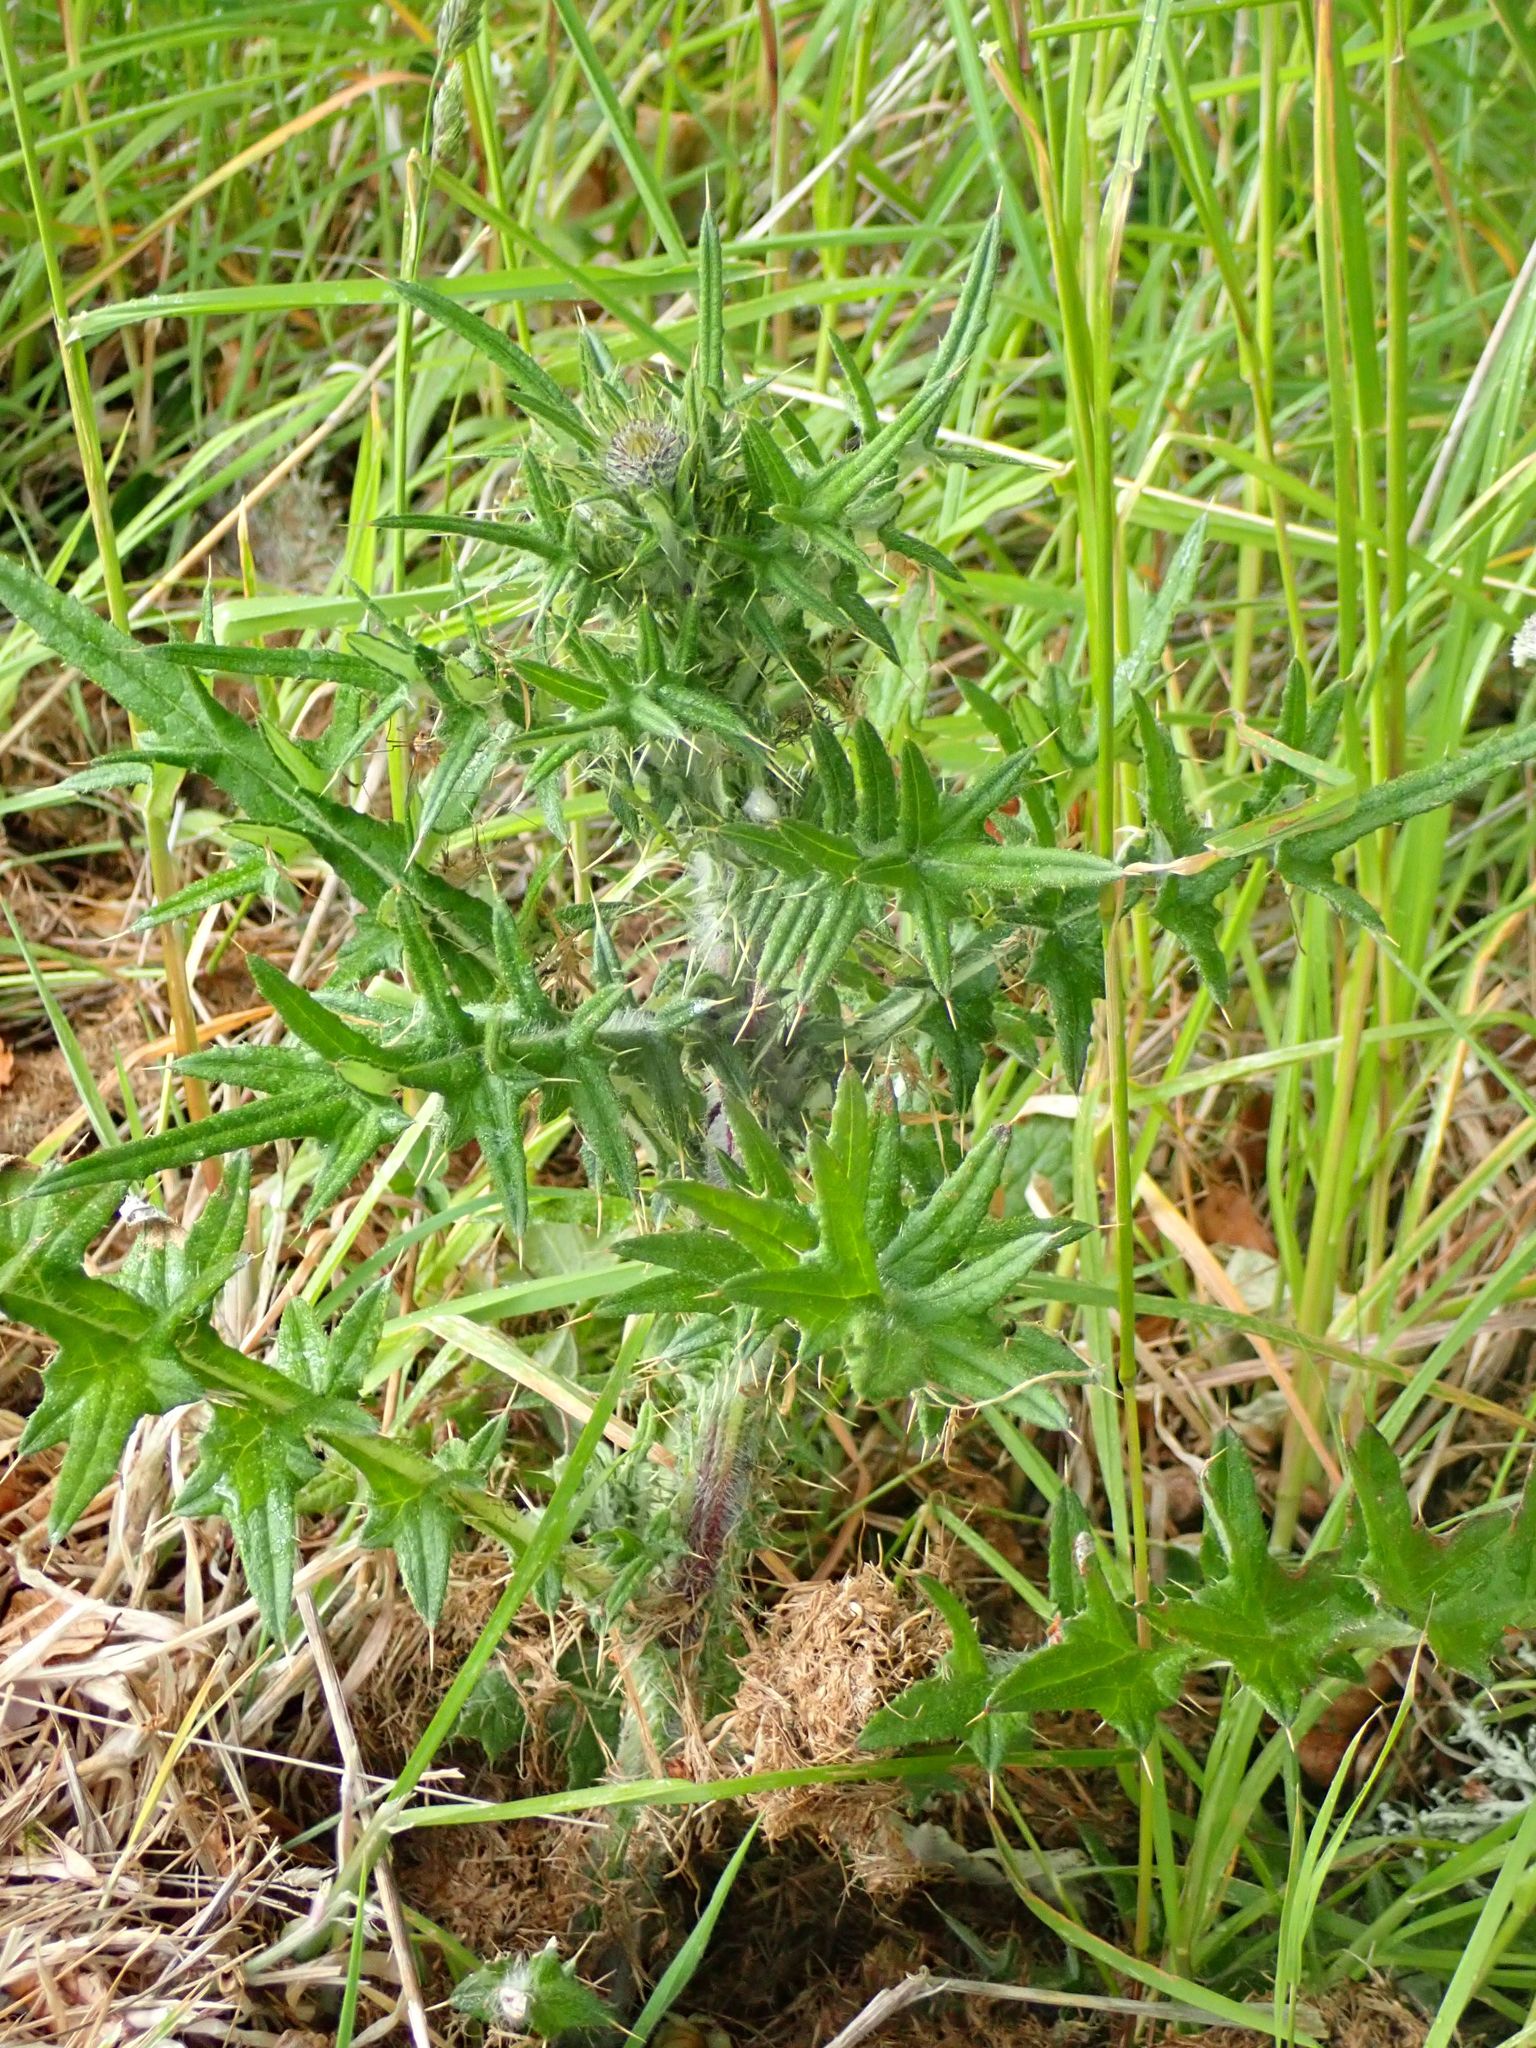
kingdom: Plantae
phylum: Tracheophyta
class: Magnoliopsida
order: Asterales
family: Asteraceae
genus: Cirsium
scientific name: Cirsium vulgare
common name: Bull thistle
